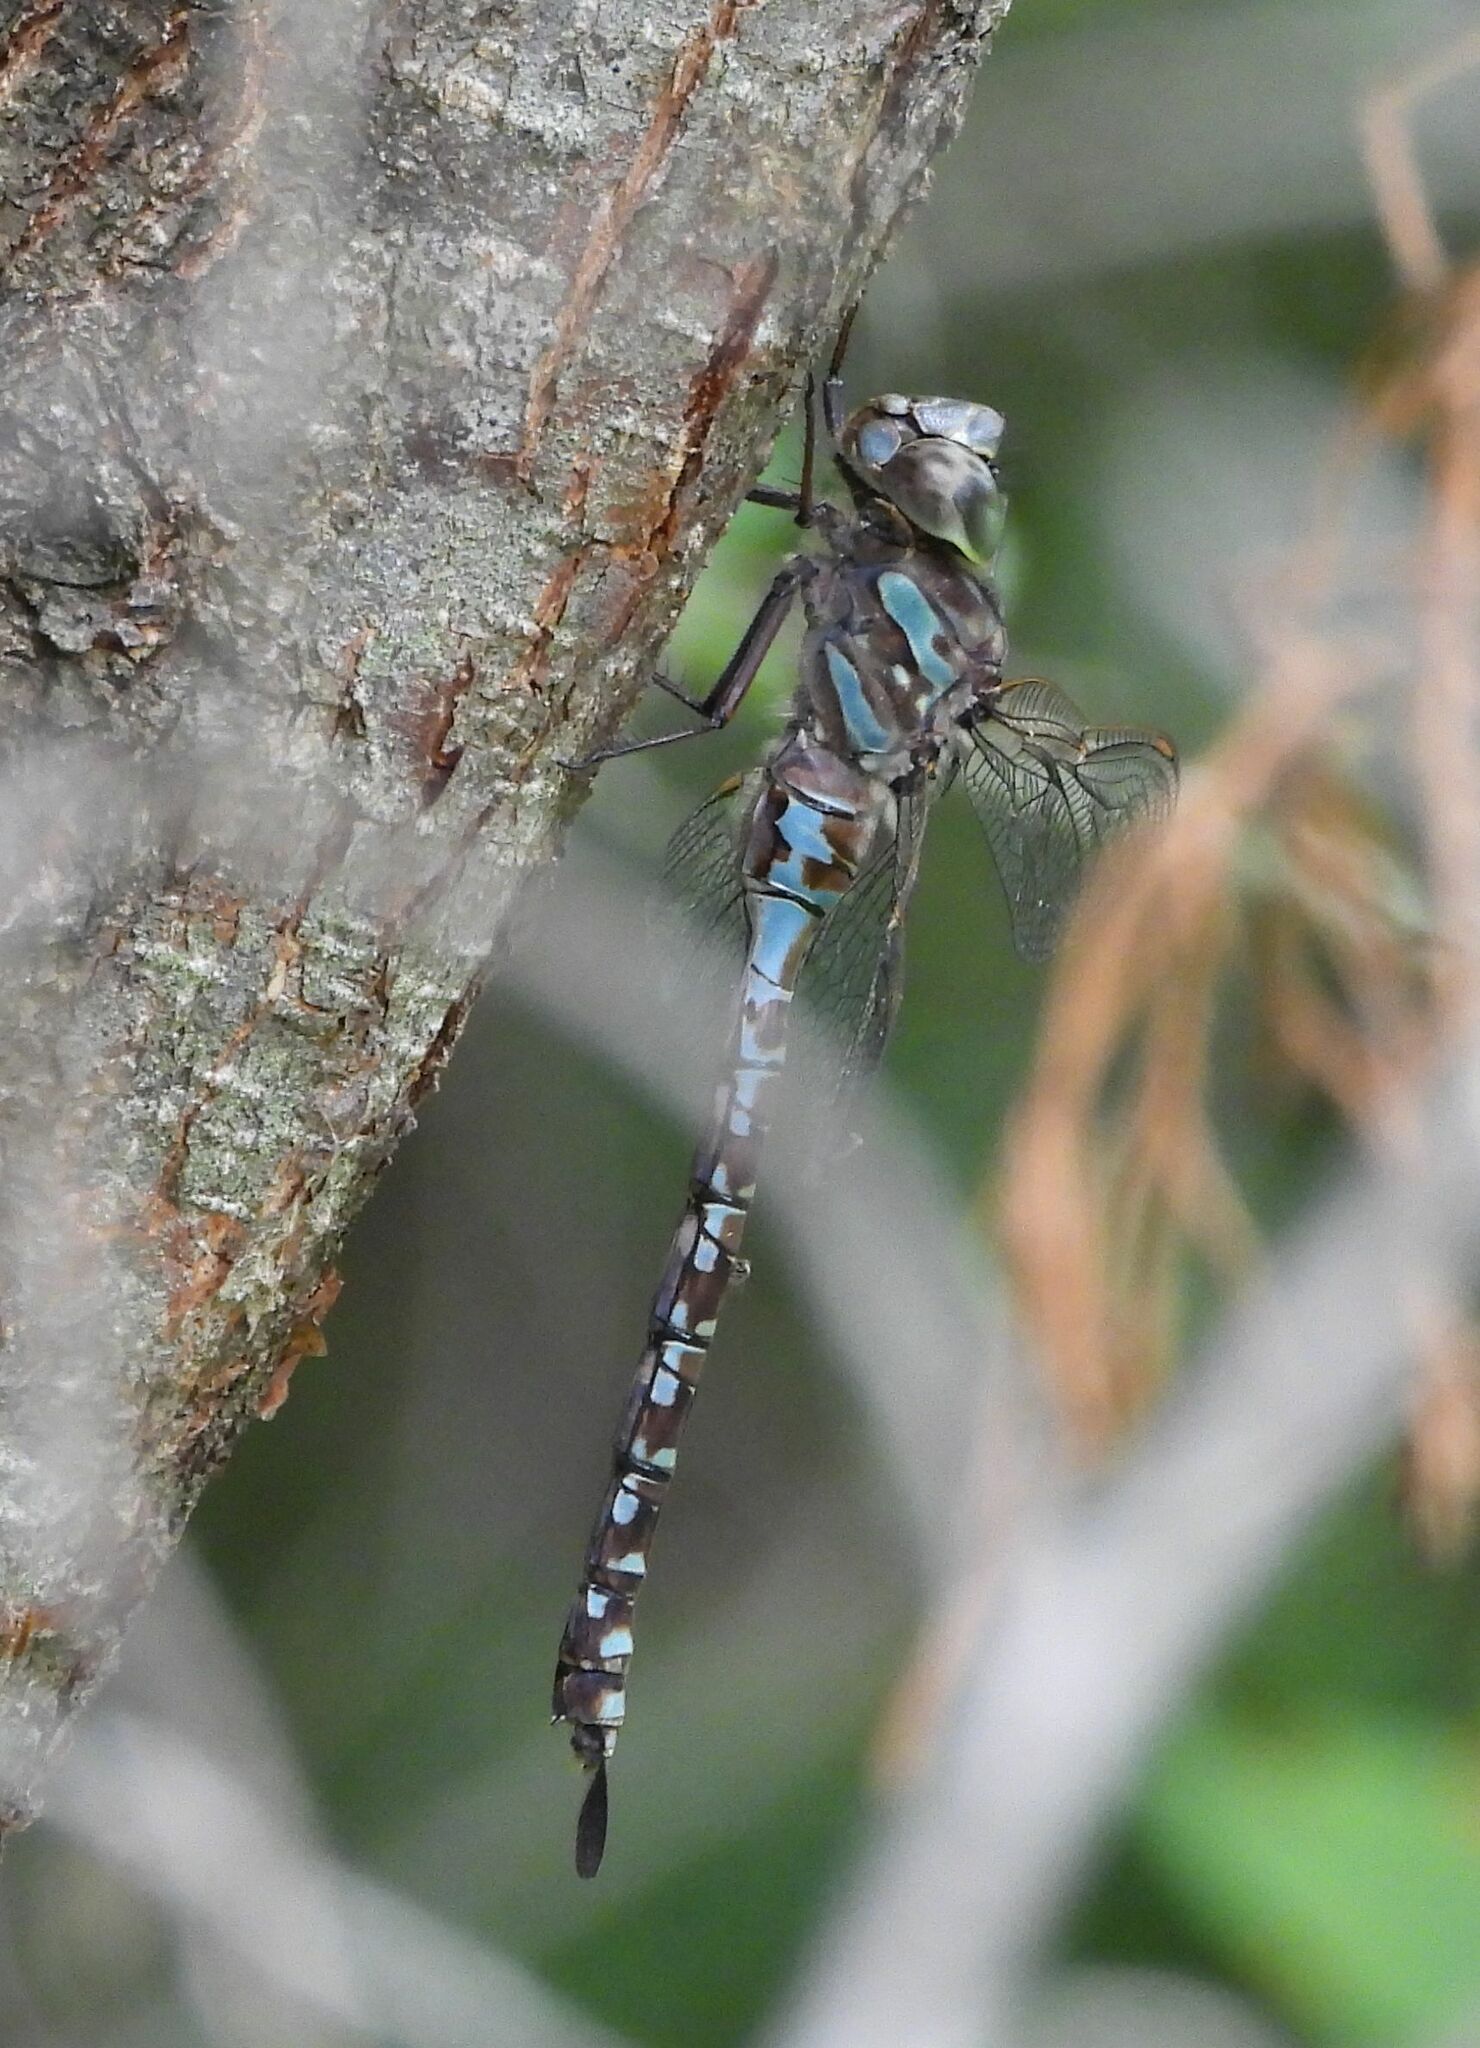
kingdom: Animalia
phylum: Arthropoda
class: Insecta
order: Odonata
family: Aeshnidae
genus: Aeshna
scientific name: Aeshna canadensis
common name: Canada darner
